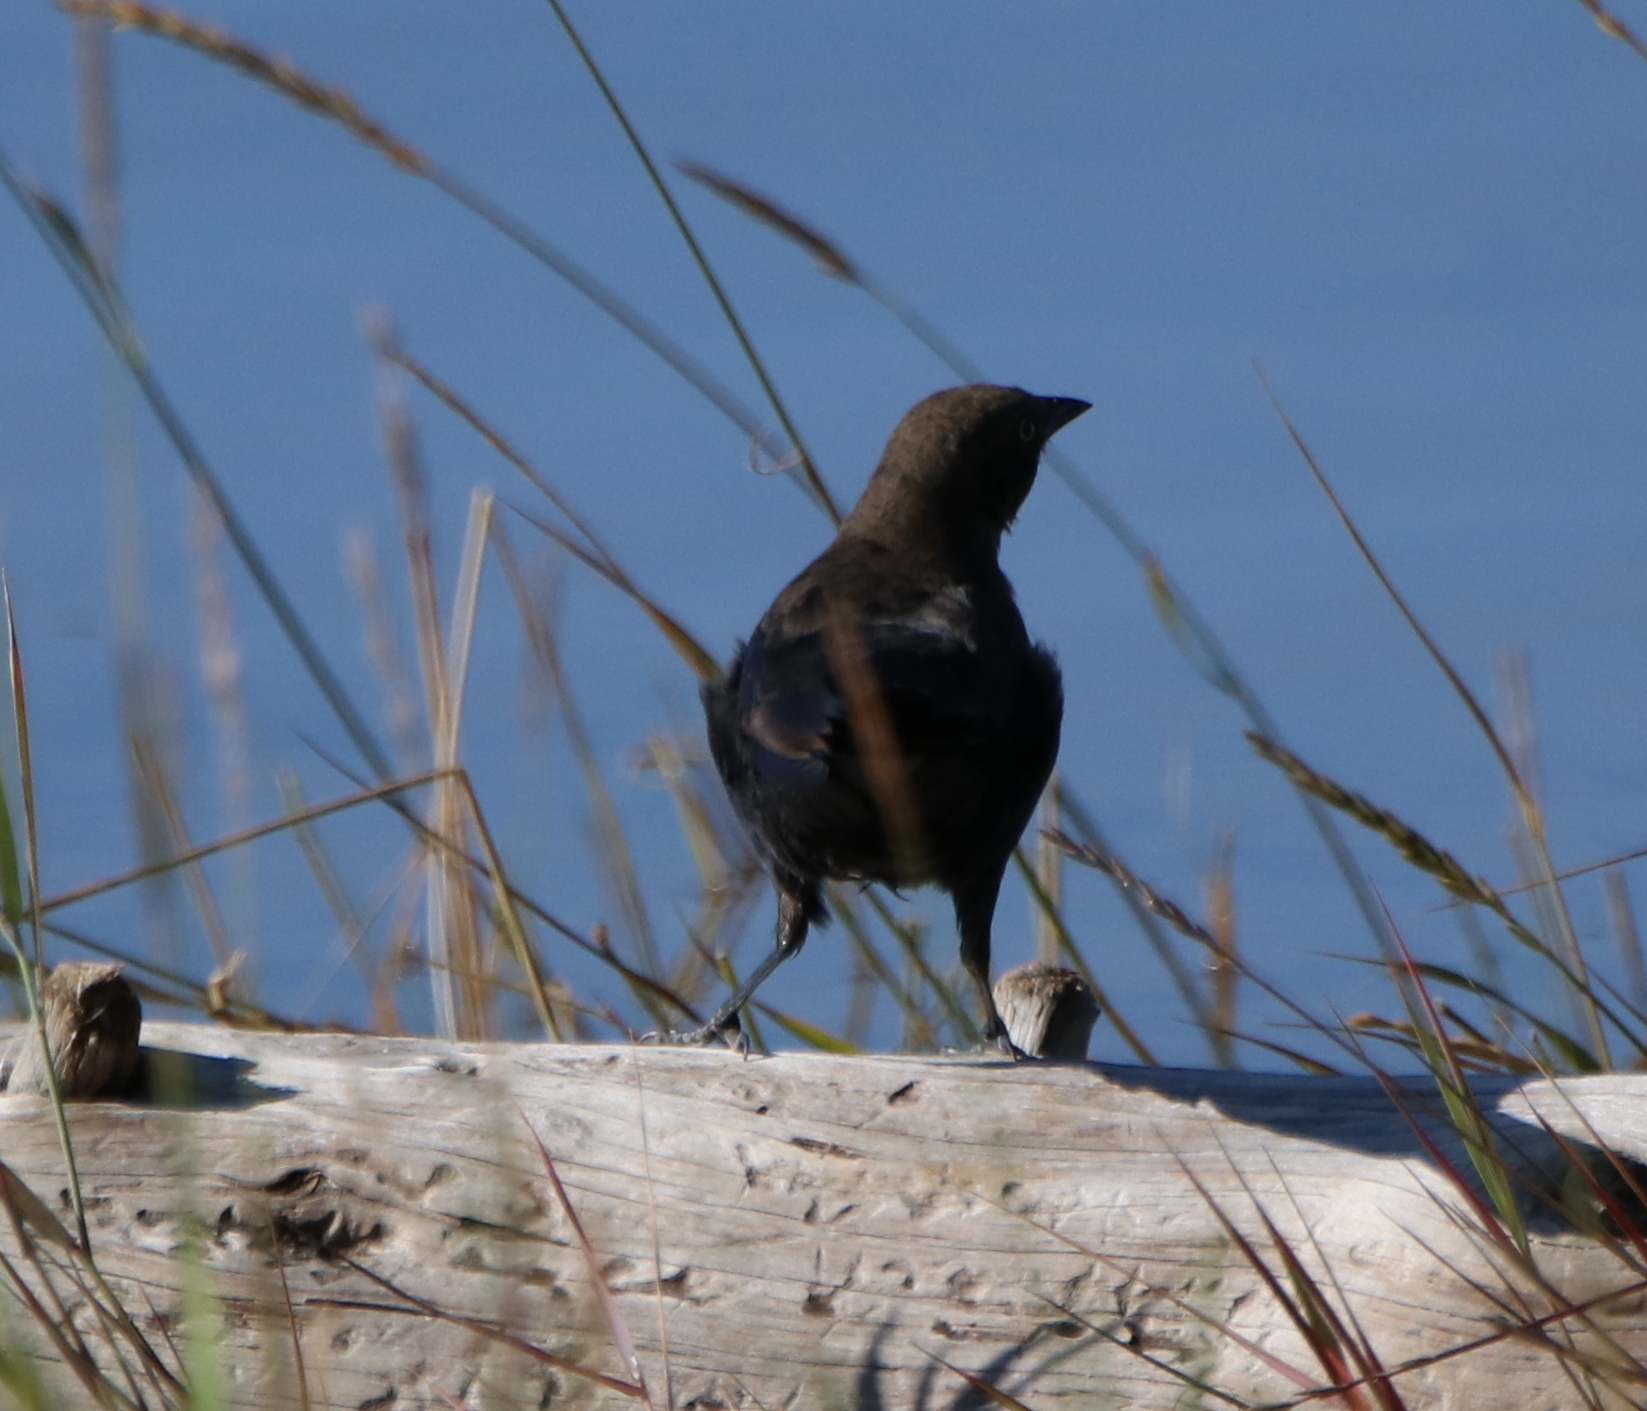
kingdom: Animalia
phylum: Chordata
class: Aves
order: Passeriformes
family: Icteridae
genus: Euphagus
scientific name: Euphagus cyanocephalus
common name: Brewer's blackbird
